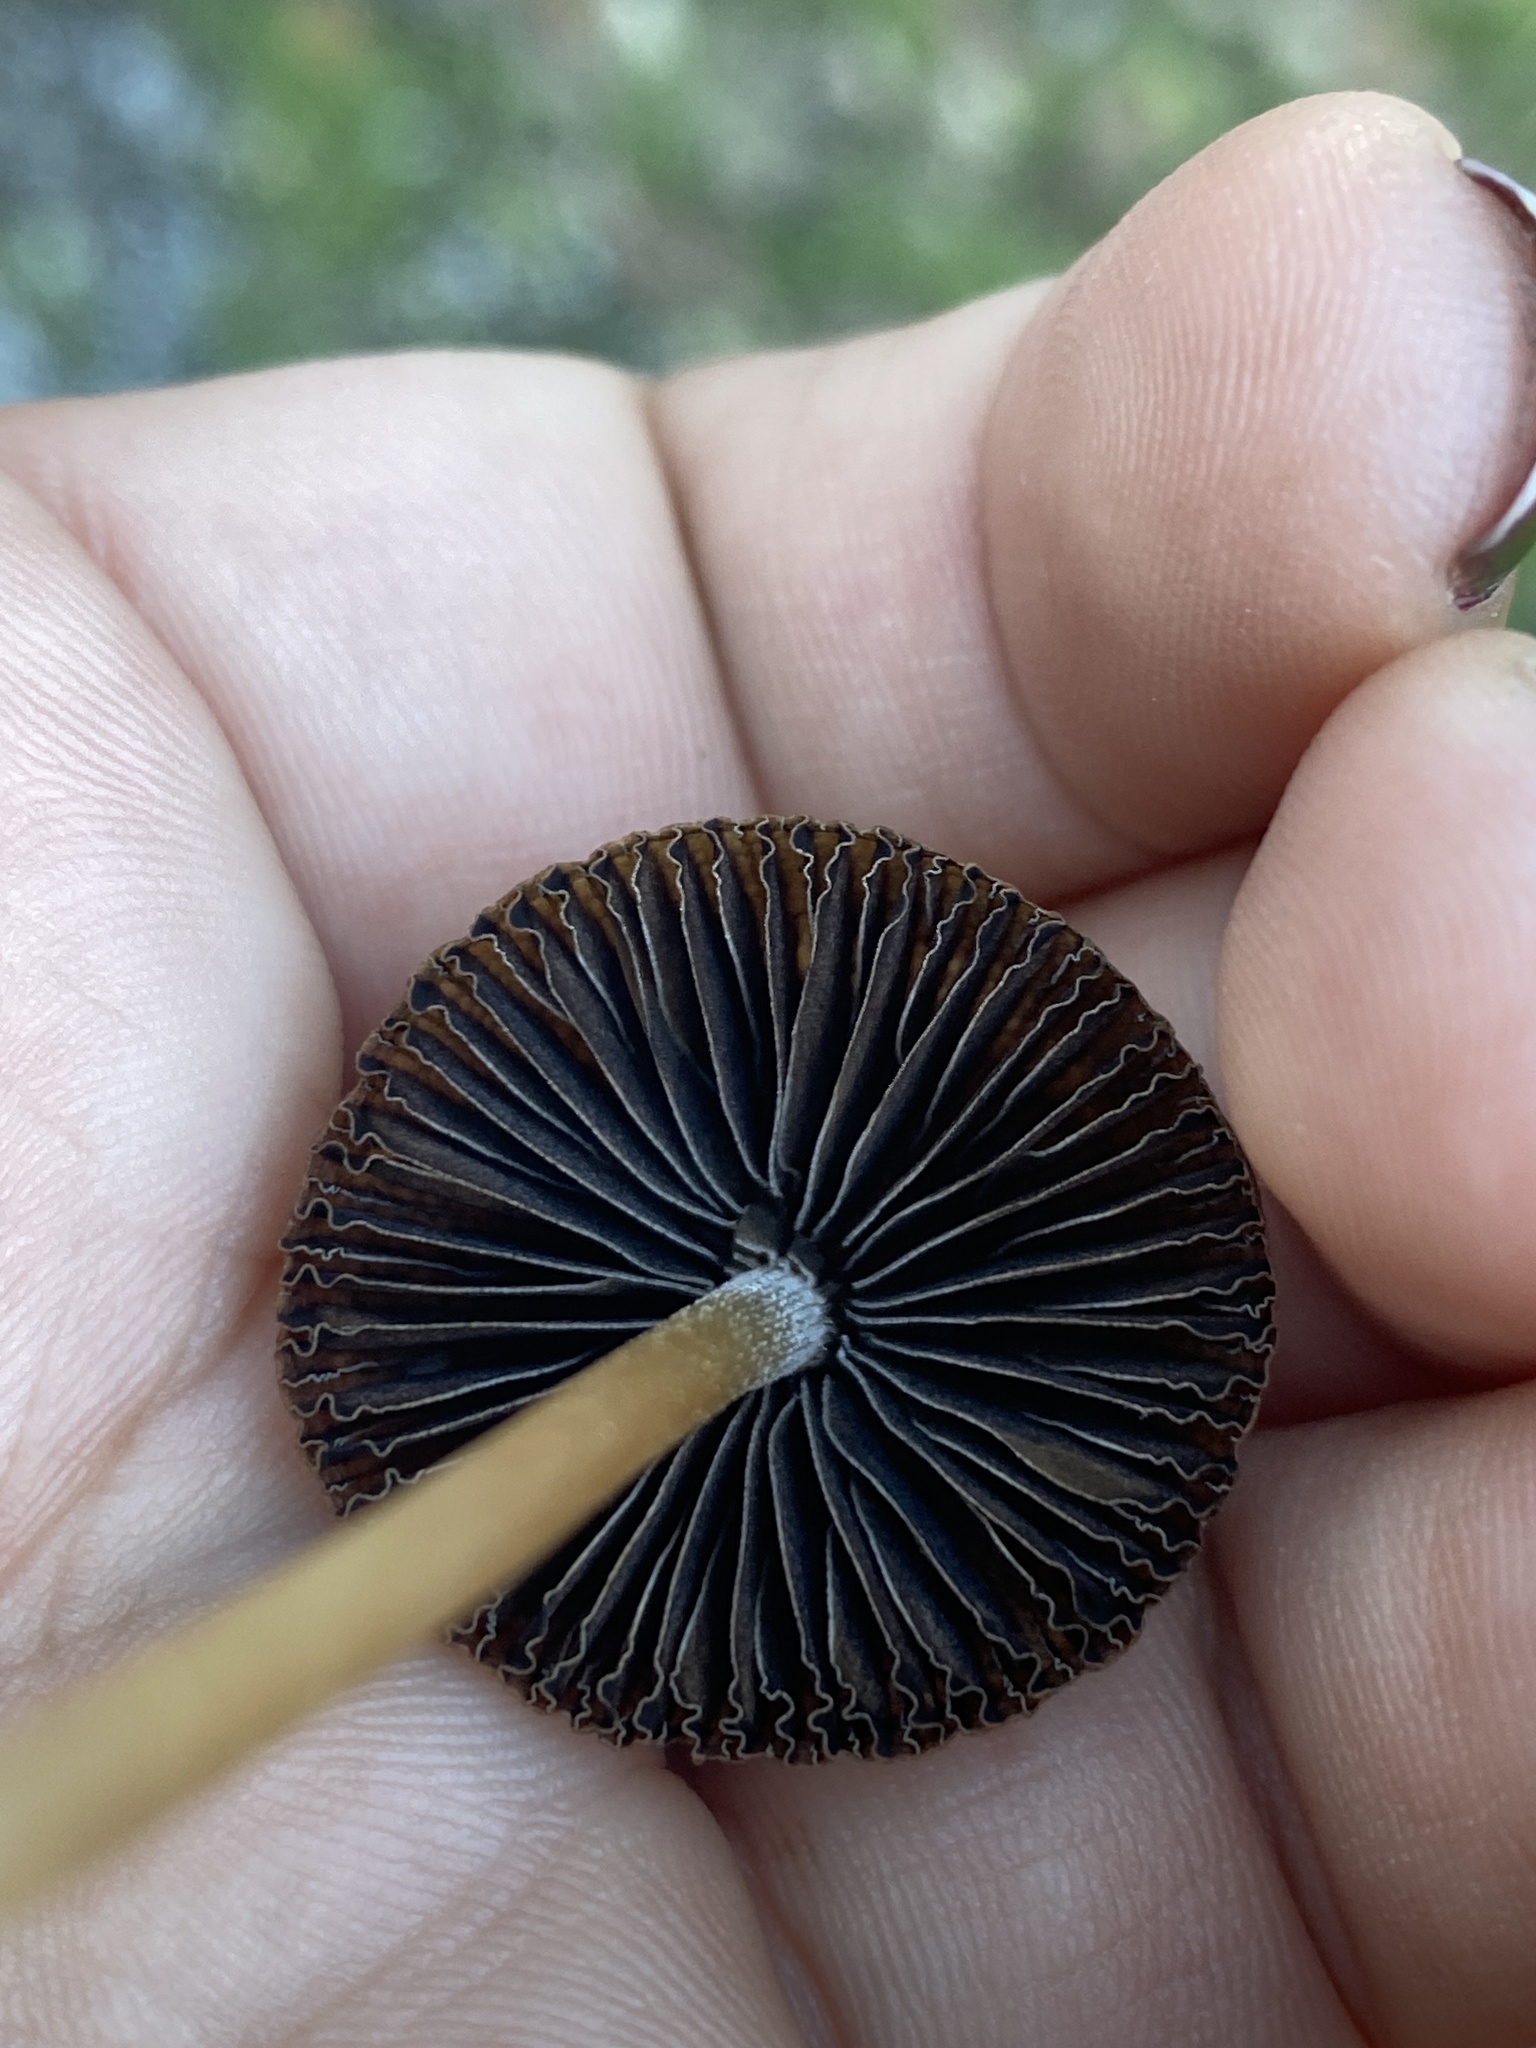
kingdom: Fungi
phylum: Basidiomycota
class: Agaricomycetes
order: Agaricales
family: Psathyrellaceae
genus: Psathyrella
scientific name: Psathyrella corrugis
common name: Red edge brittlestem
